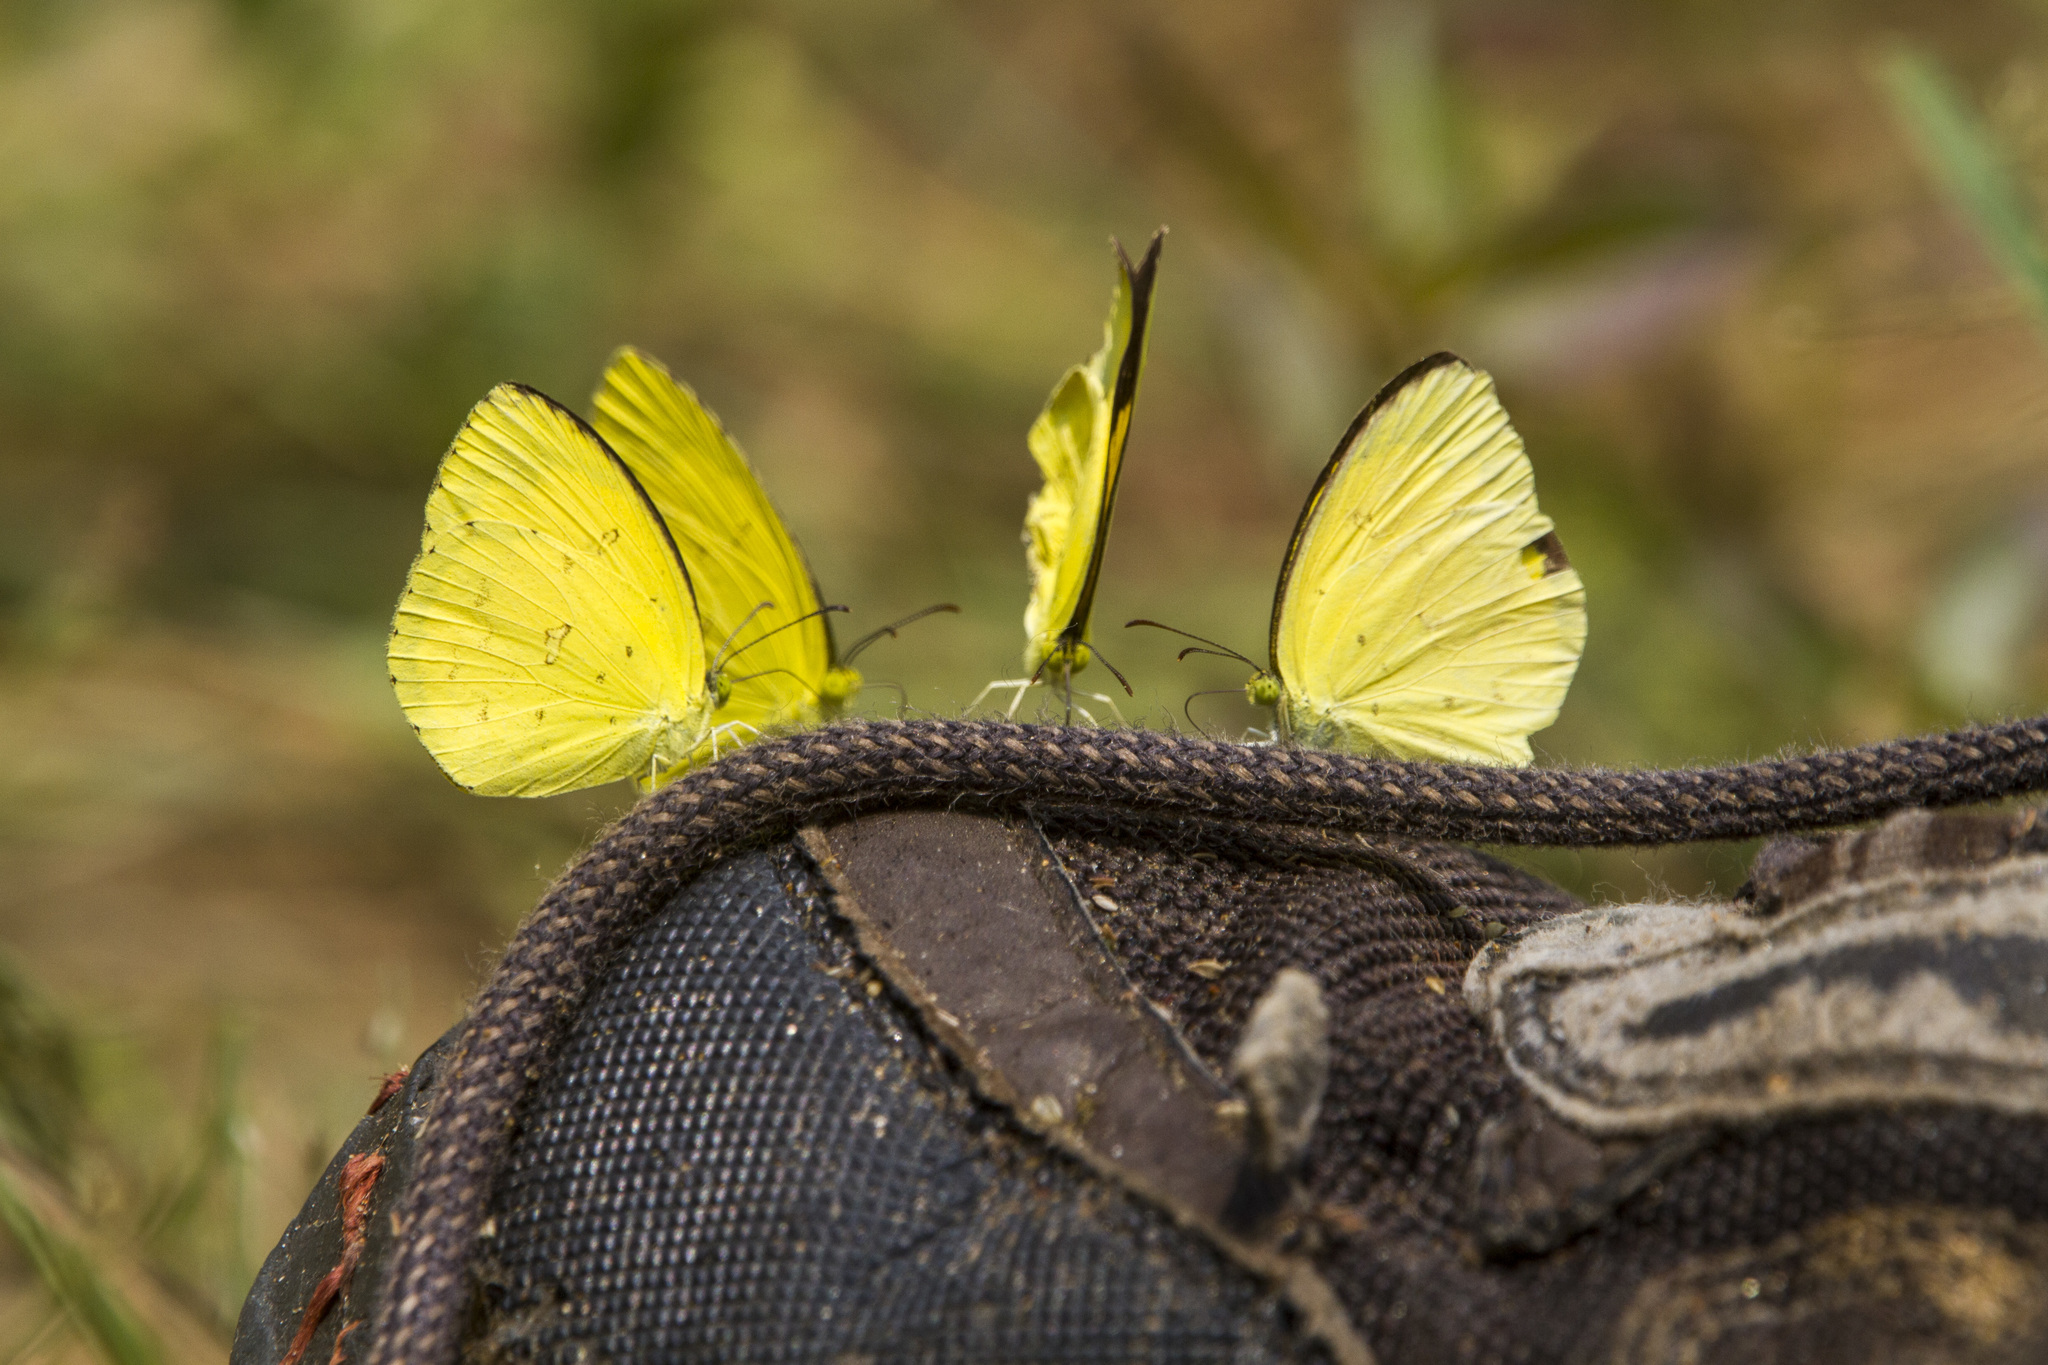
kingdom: Animalia
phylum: Arthropoda
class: Insecta
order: Lepidoptera
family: Pieridae
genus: Eurema
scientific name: Eurema hecabe
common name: Pale grass yellow
